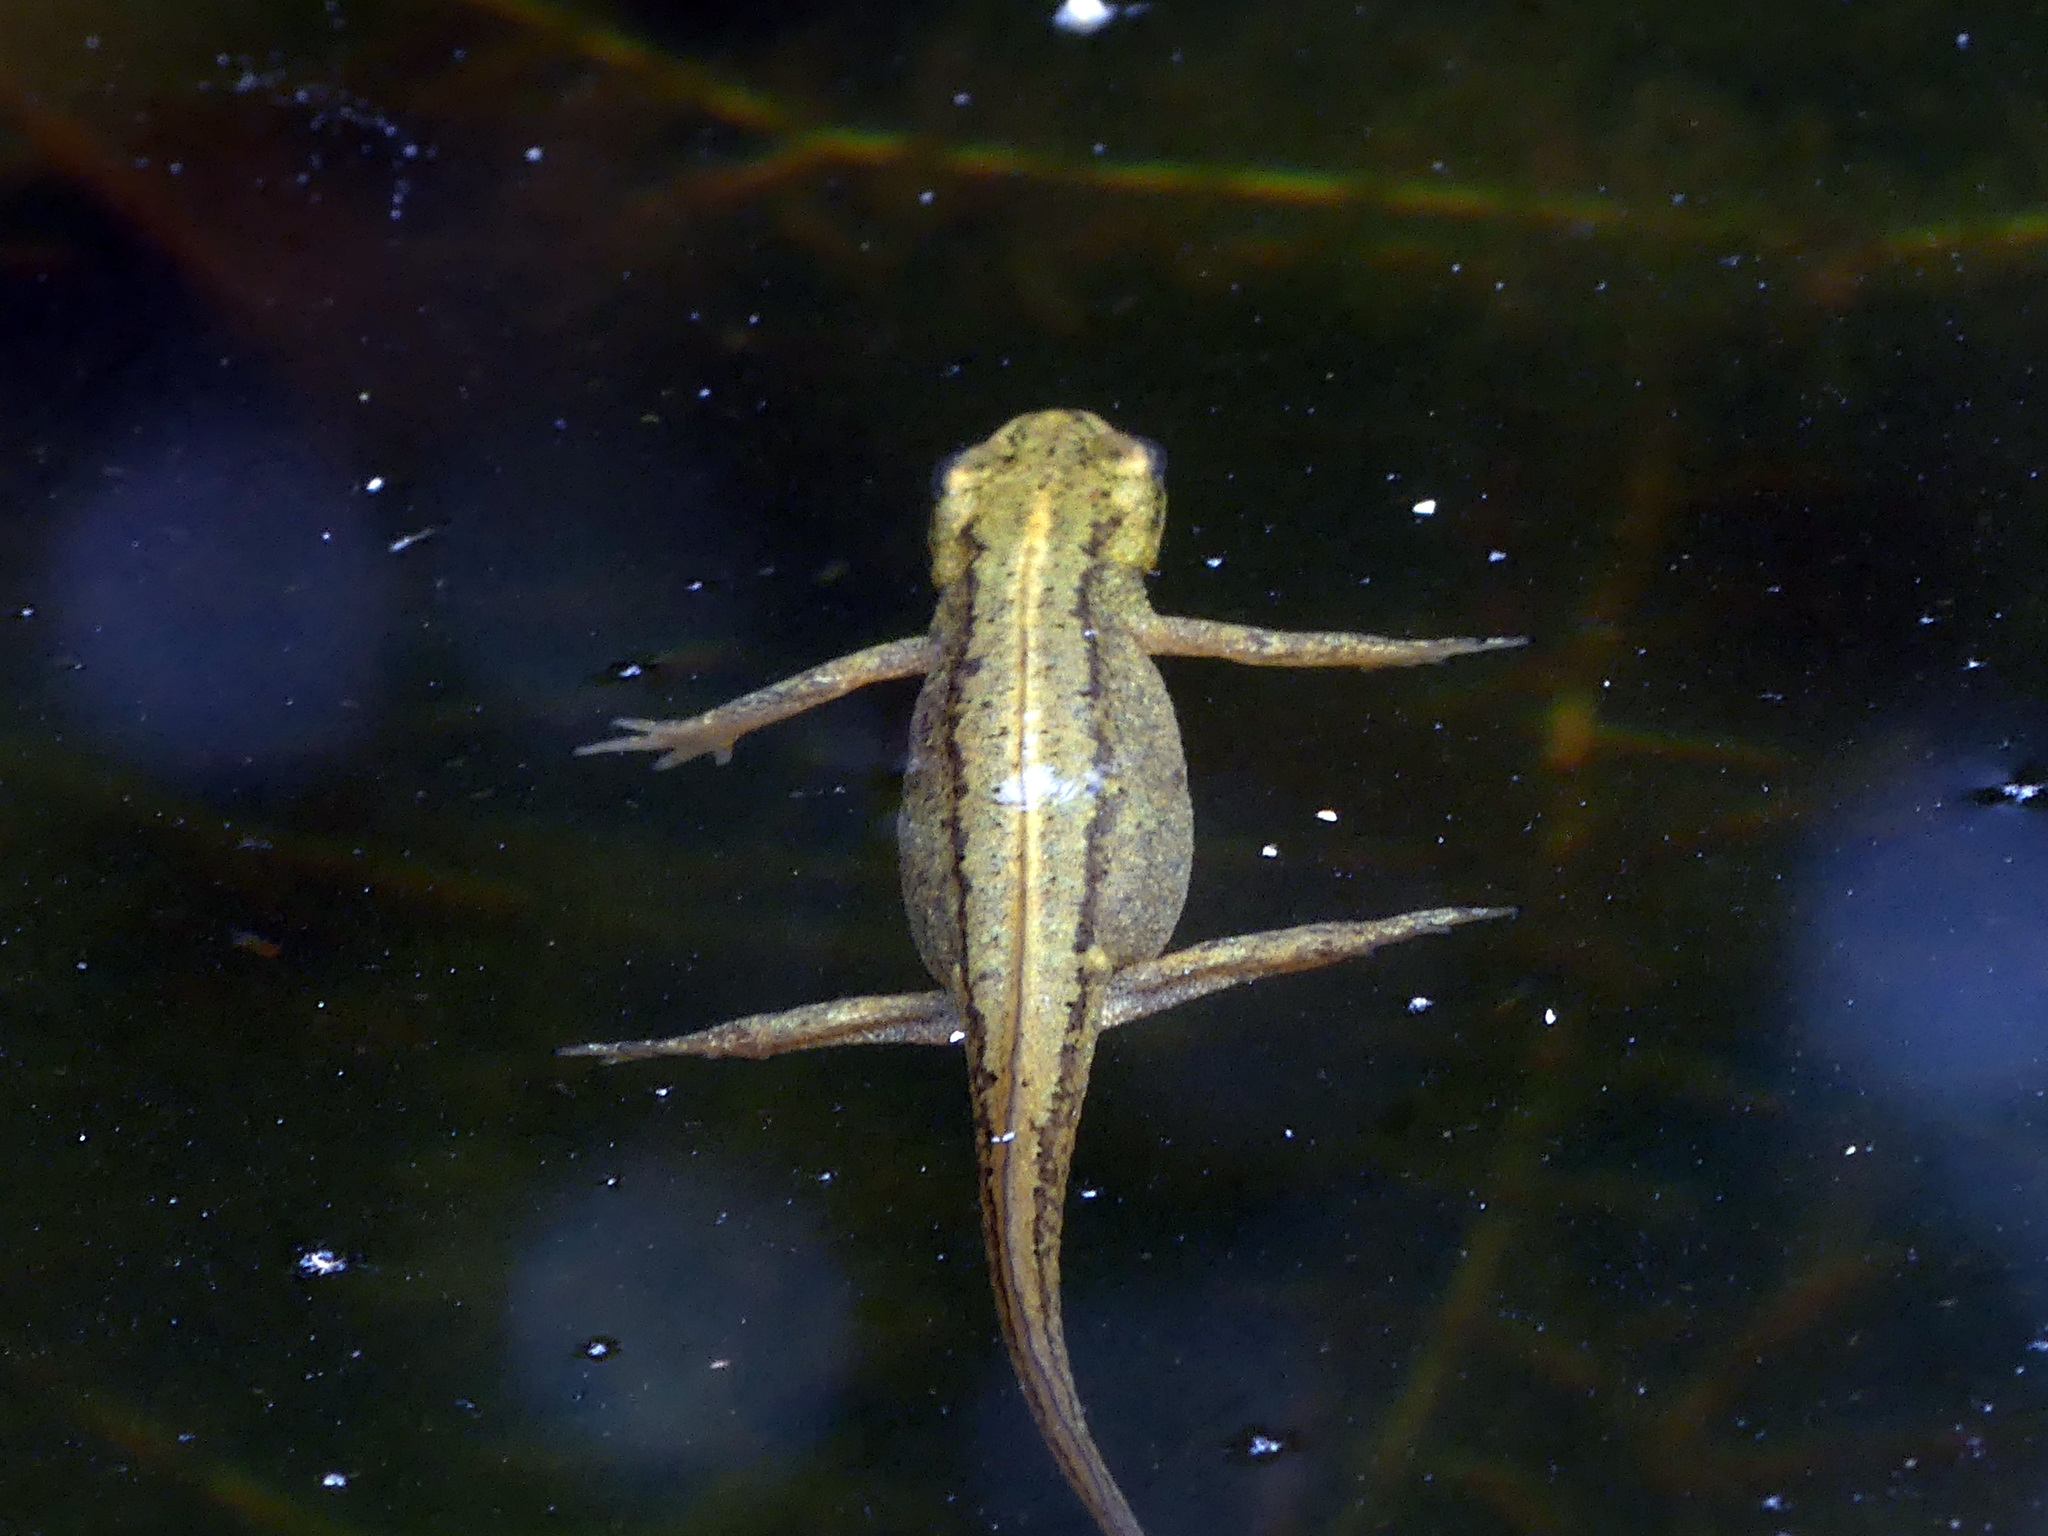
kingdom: Animalia
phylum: Chordata
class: Amphibia
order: Caudata
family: Salamandridae
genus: Lissotriton
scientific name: Lissotriton vulgaris
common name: Smooth newt
